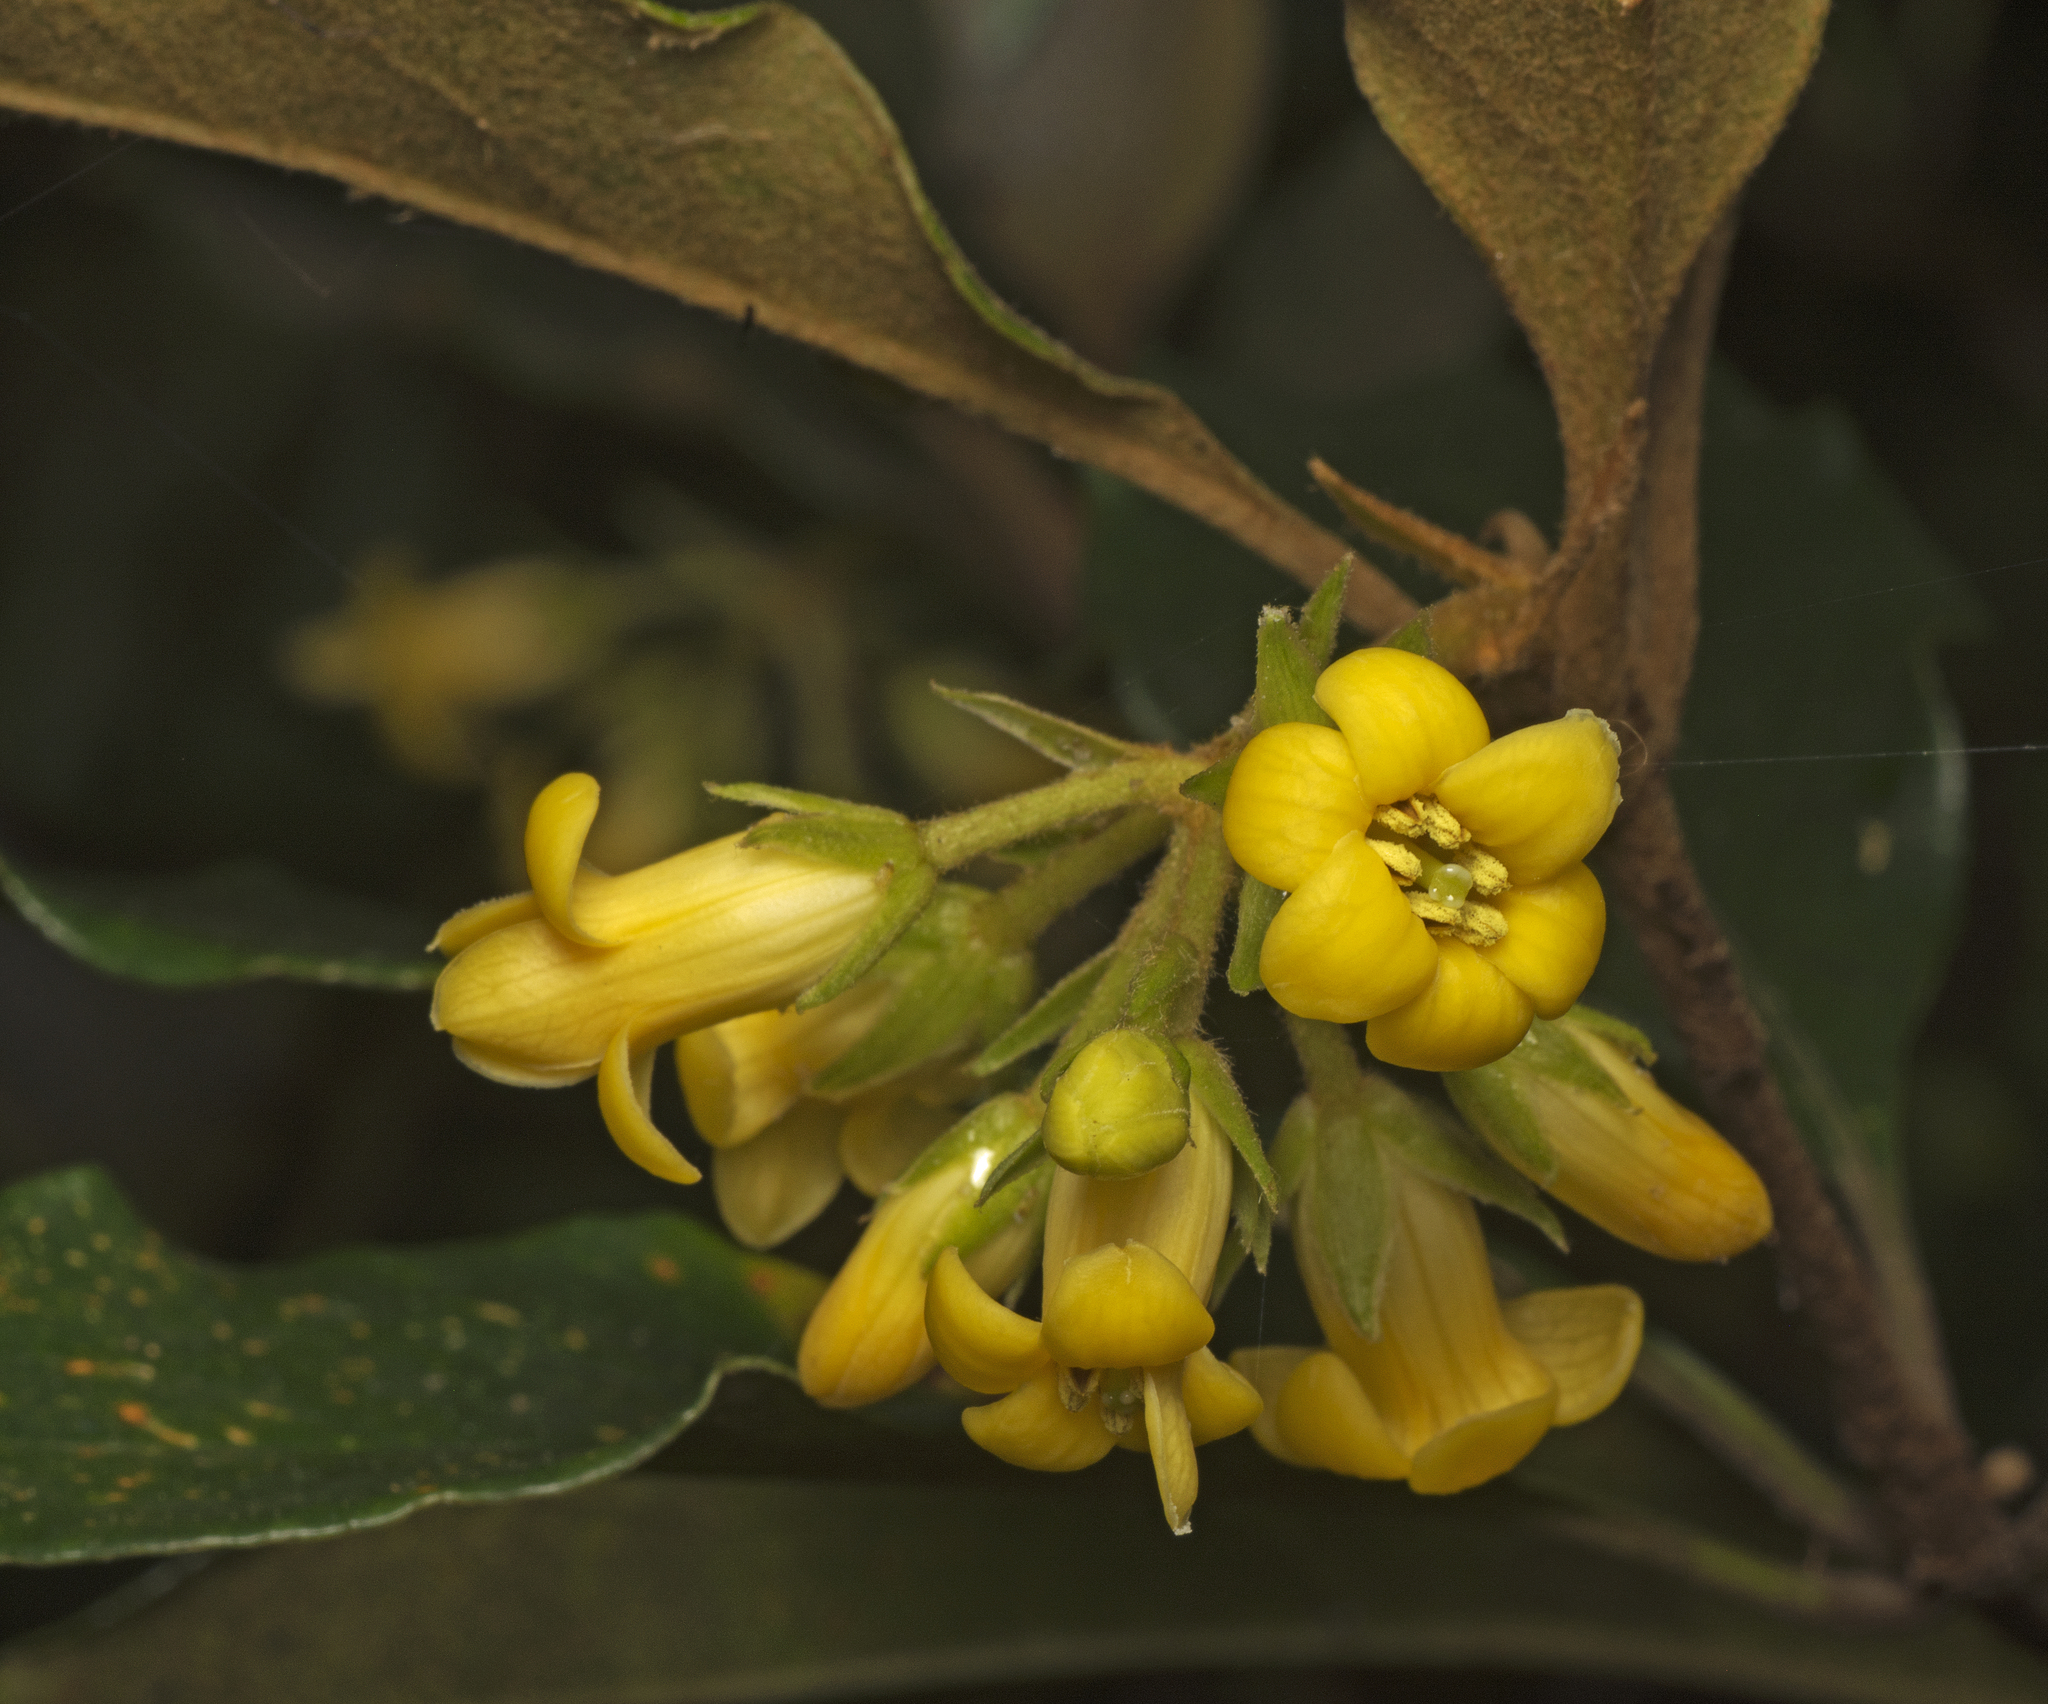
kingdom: Plantae
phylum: Tracheophyta
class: Magnoliopsida
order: Apiales
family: Pittosporaceae
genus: Pittosporum
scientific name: Pittosporum revolutum
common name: Brisbane-laurel
